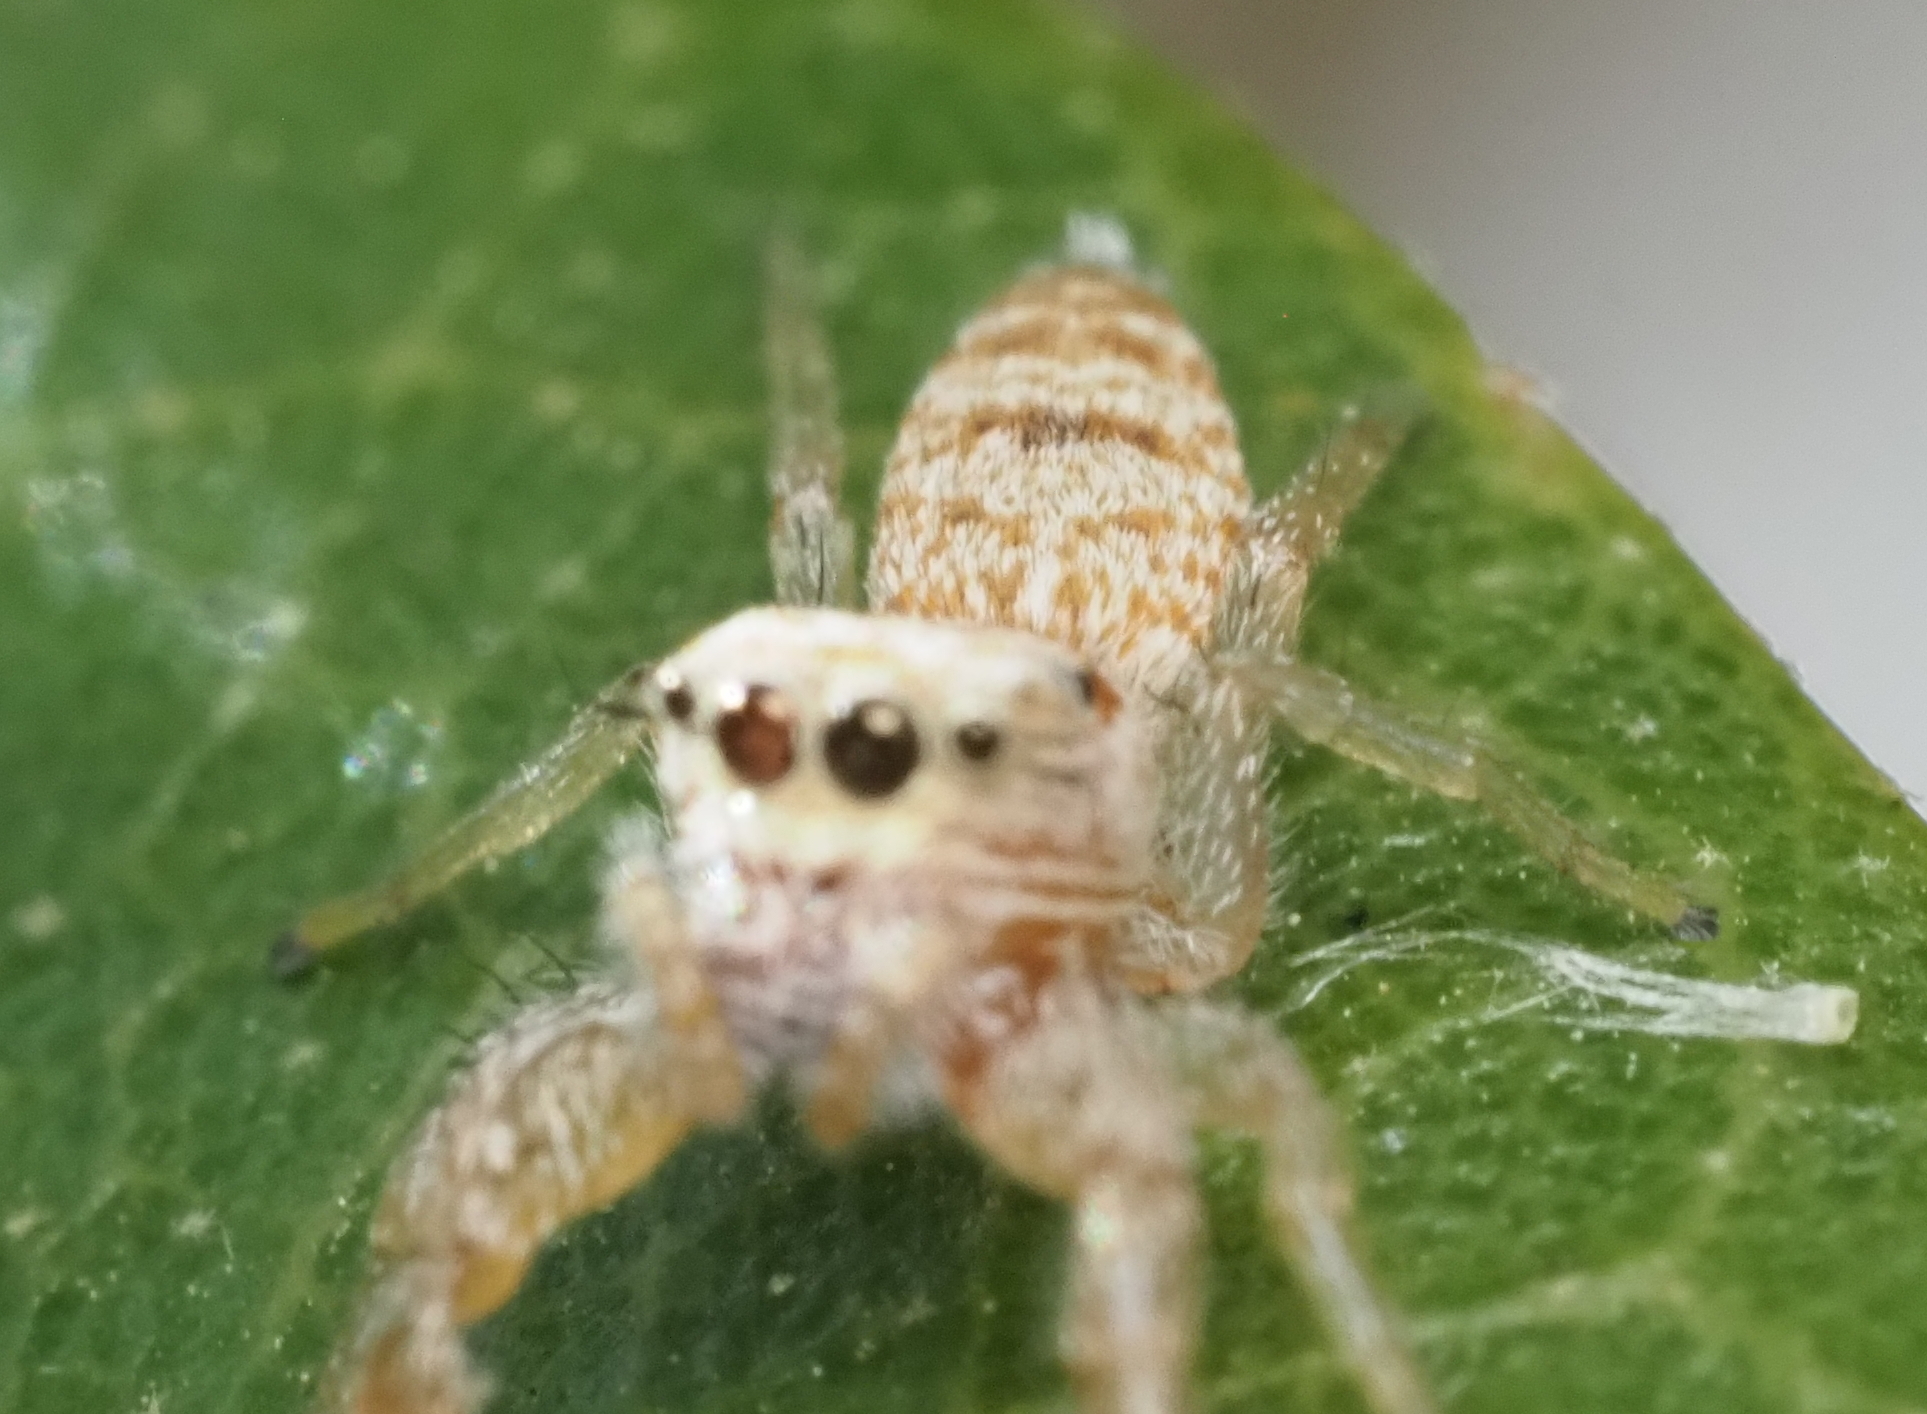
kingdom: Animalia
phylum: Arthropoda
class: Arachnida
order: Araneae
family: Salticidae
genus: Hentzia
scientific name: Hentzia palmarum
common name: Common hentz jumping spider
